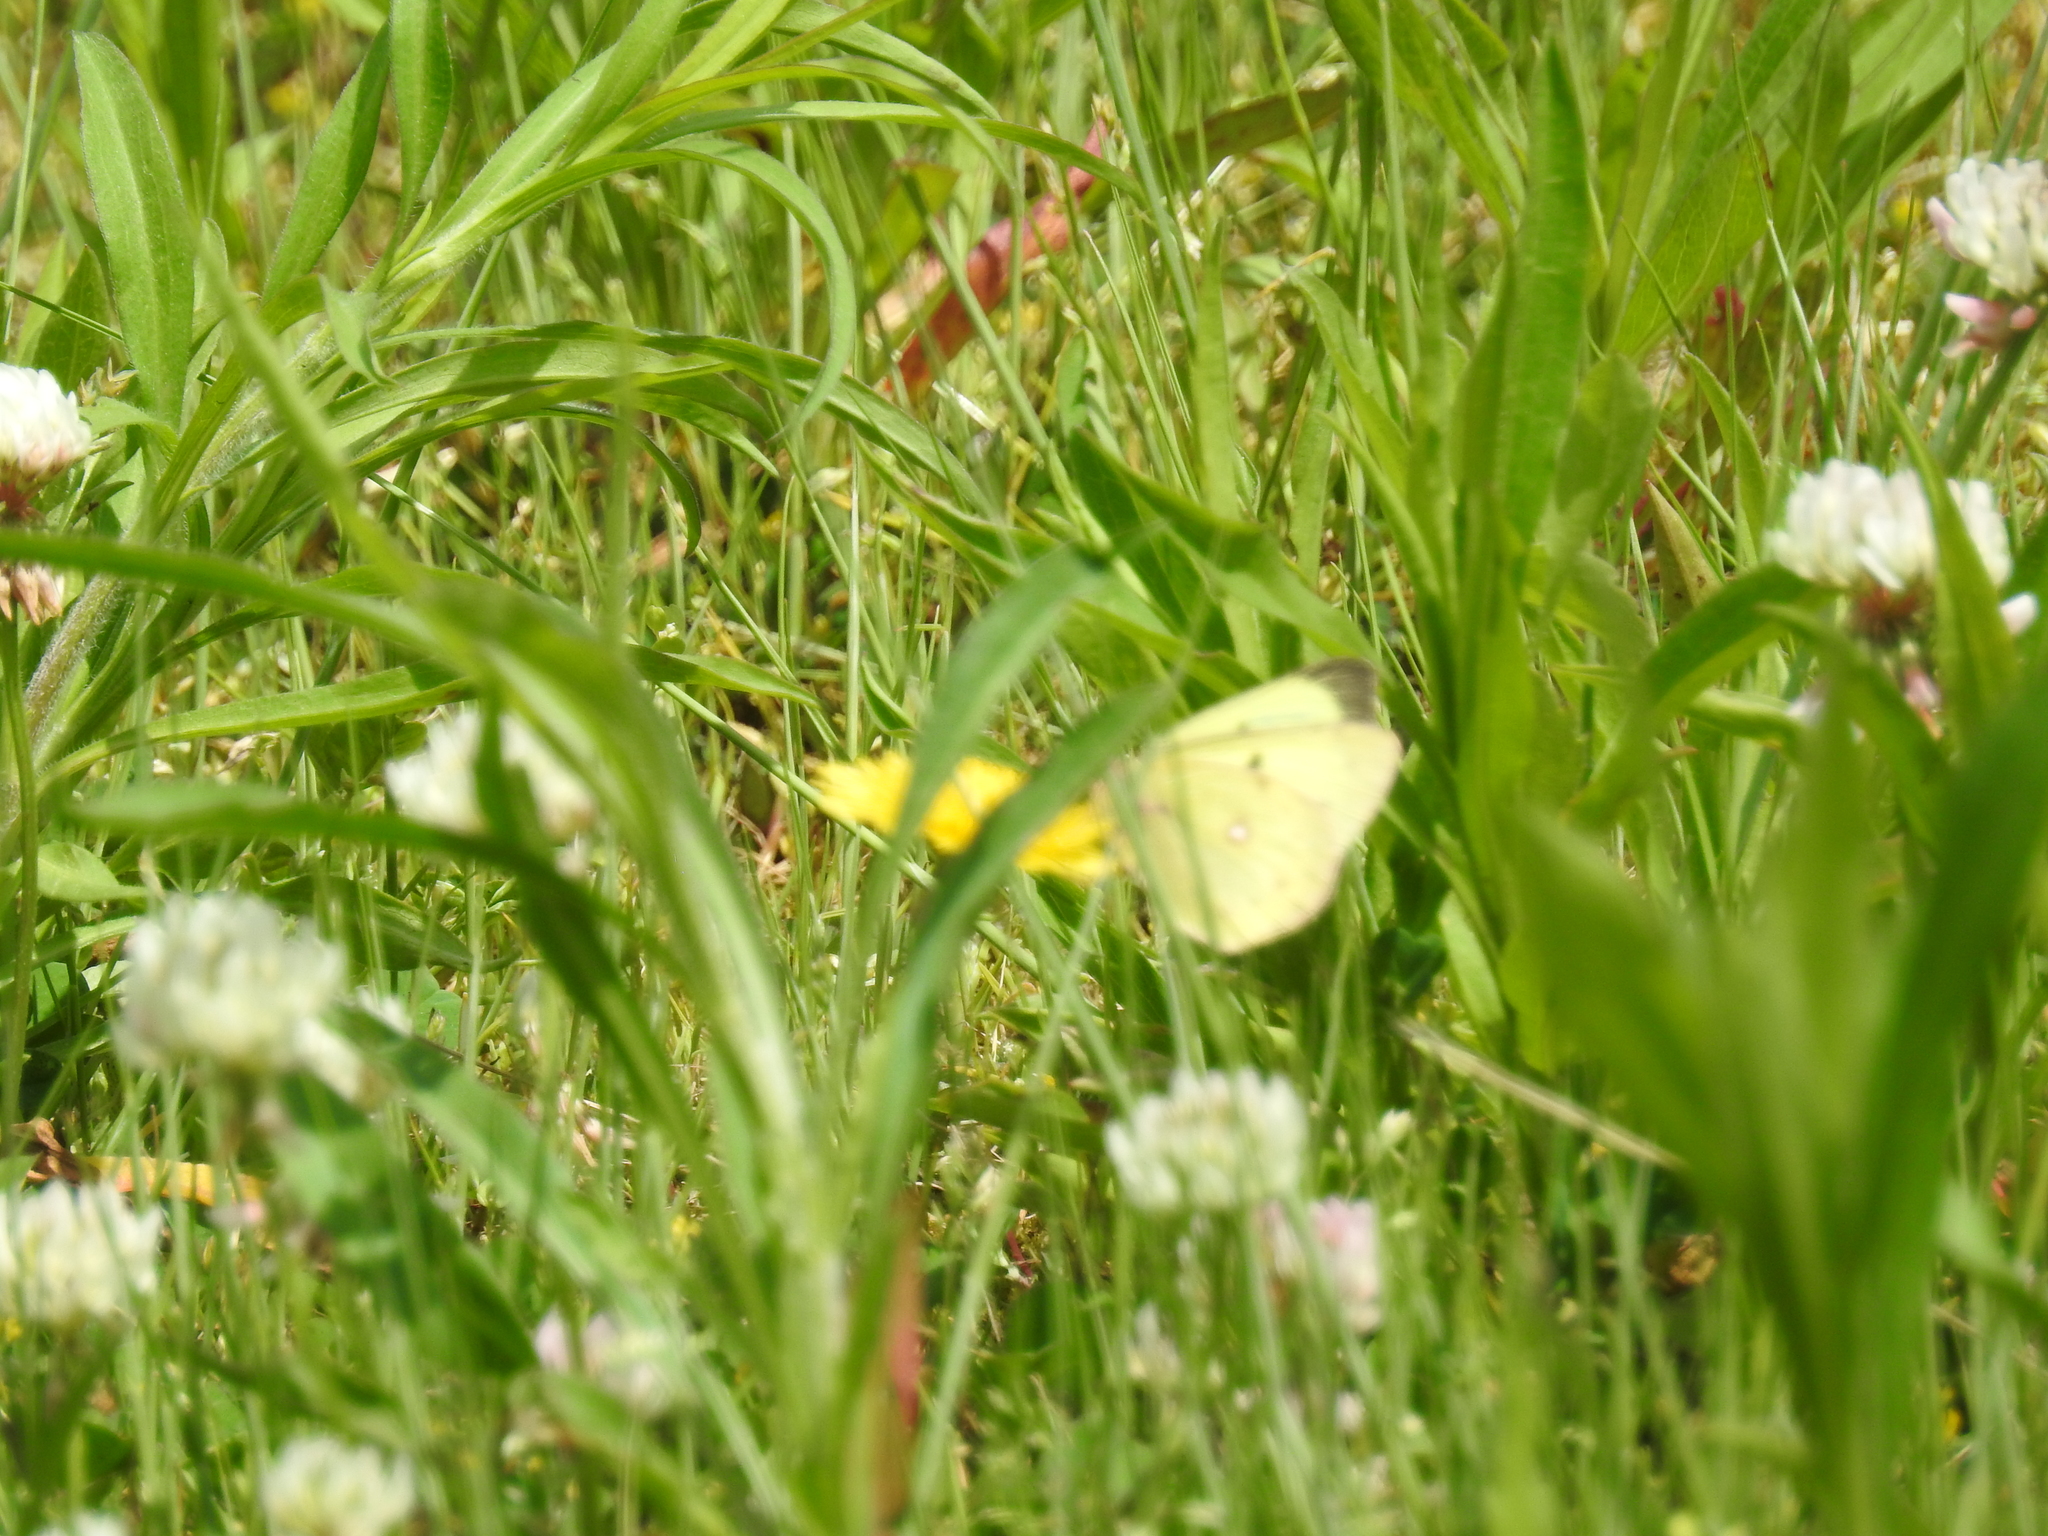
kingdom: Animalia
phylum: Arthropoda
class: Insecta
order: Lepidoptera
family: Pieridae
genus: Colias
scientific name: Colias philodice
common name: Clouded sulphur
